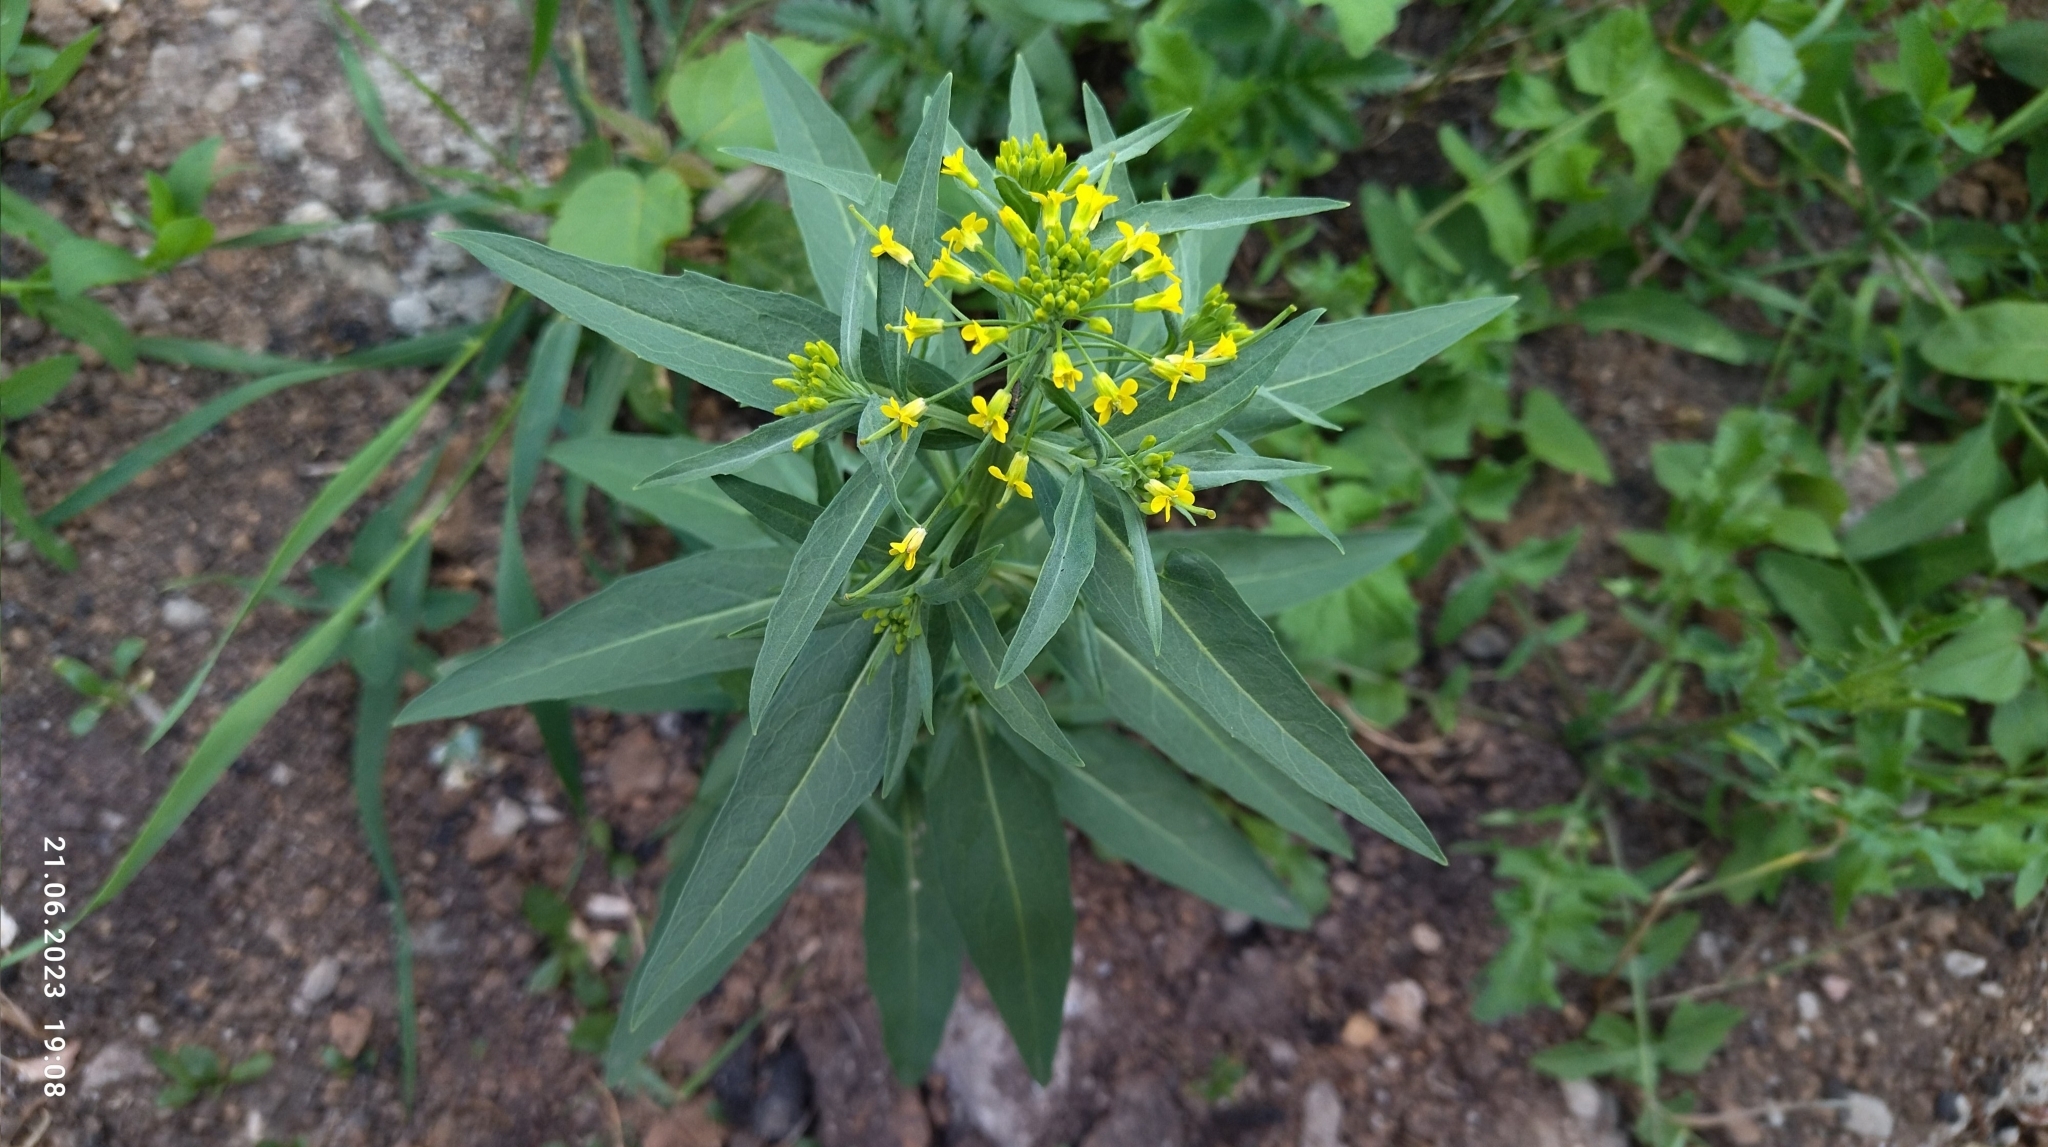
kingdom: Plantae
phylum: Tracheophyta
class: Magnoliopsida
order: Brassicales
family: Brassicaceae
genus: Erysimum
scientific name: Erysimum cheiranthoides
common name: Treacle mustard
